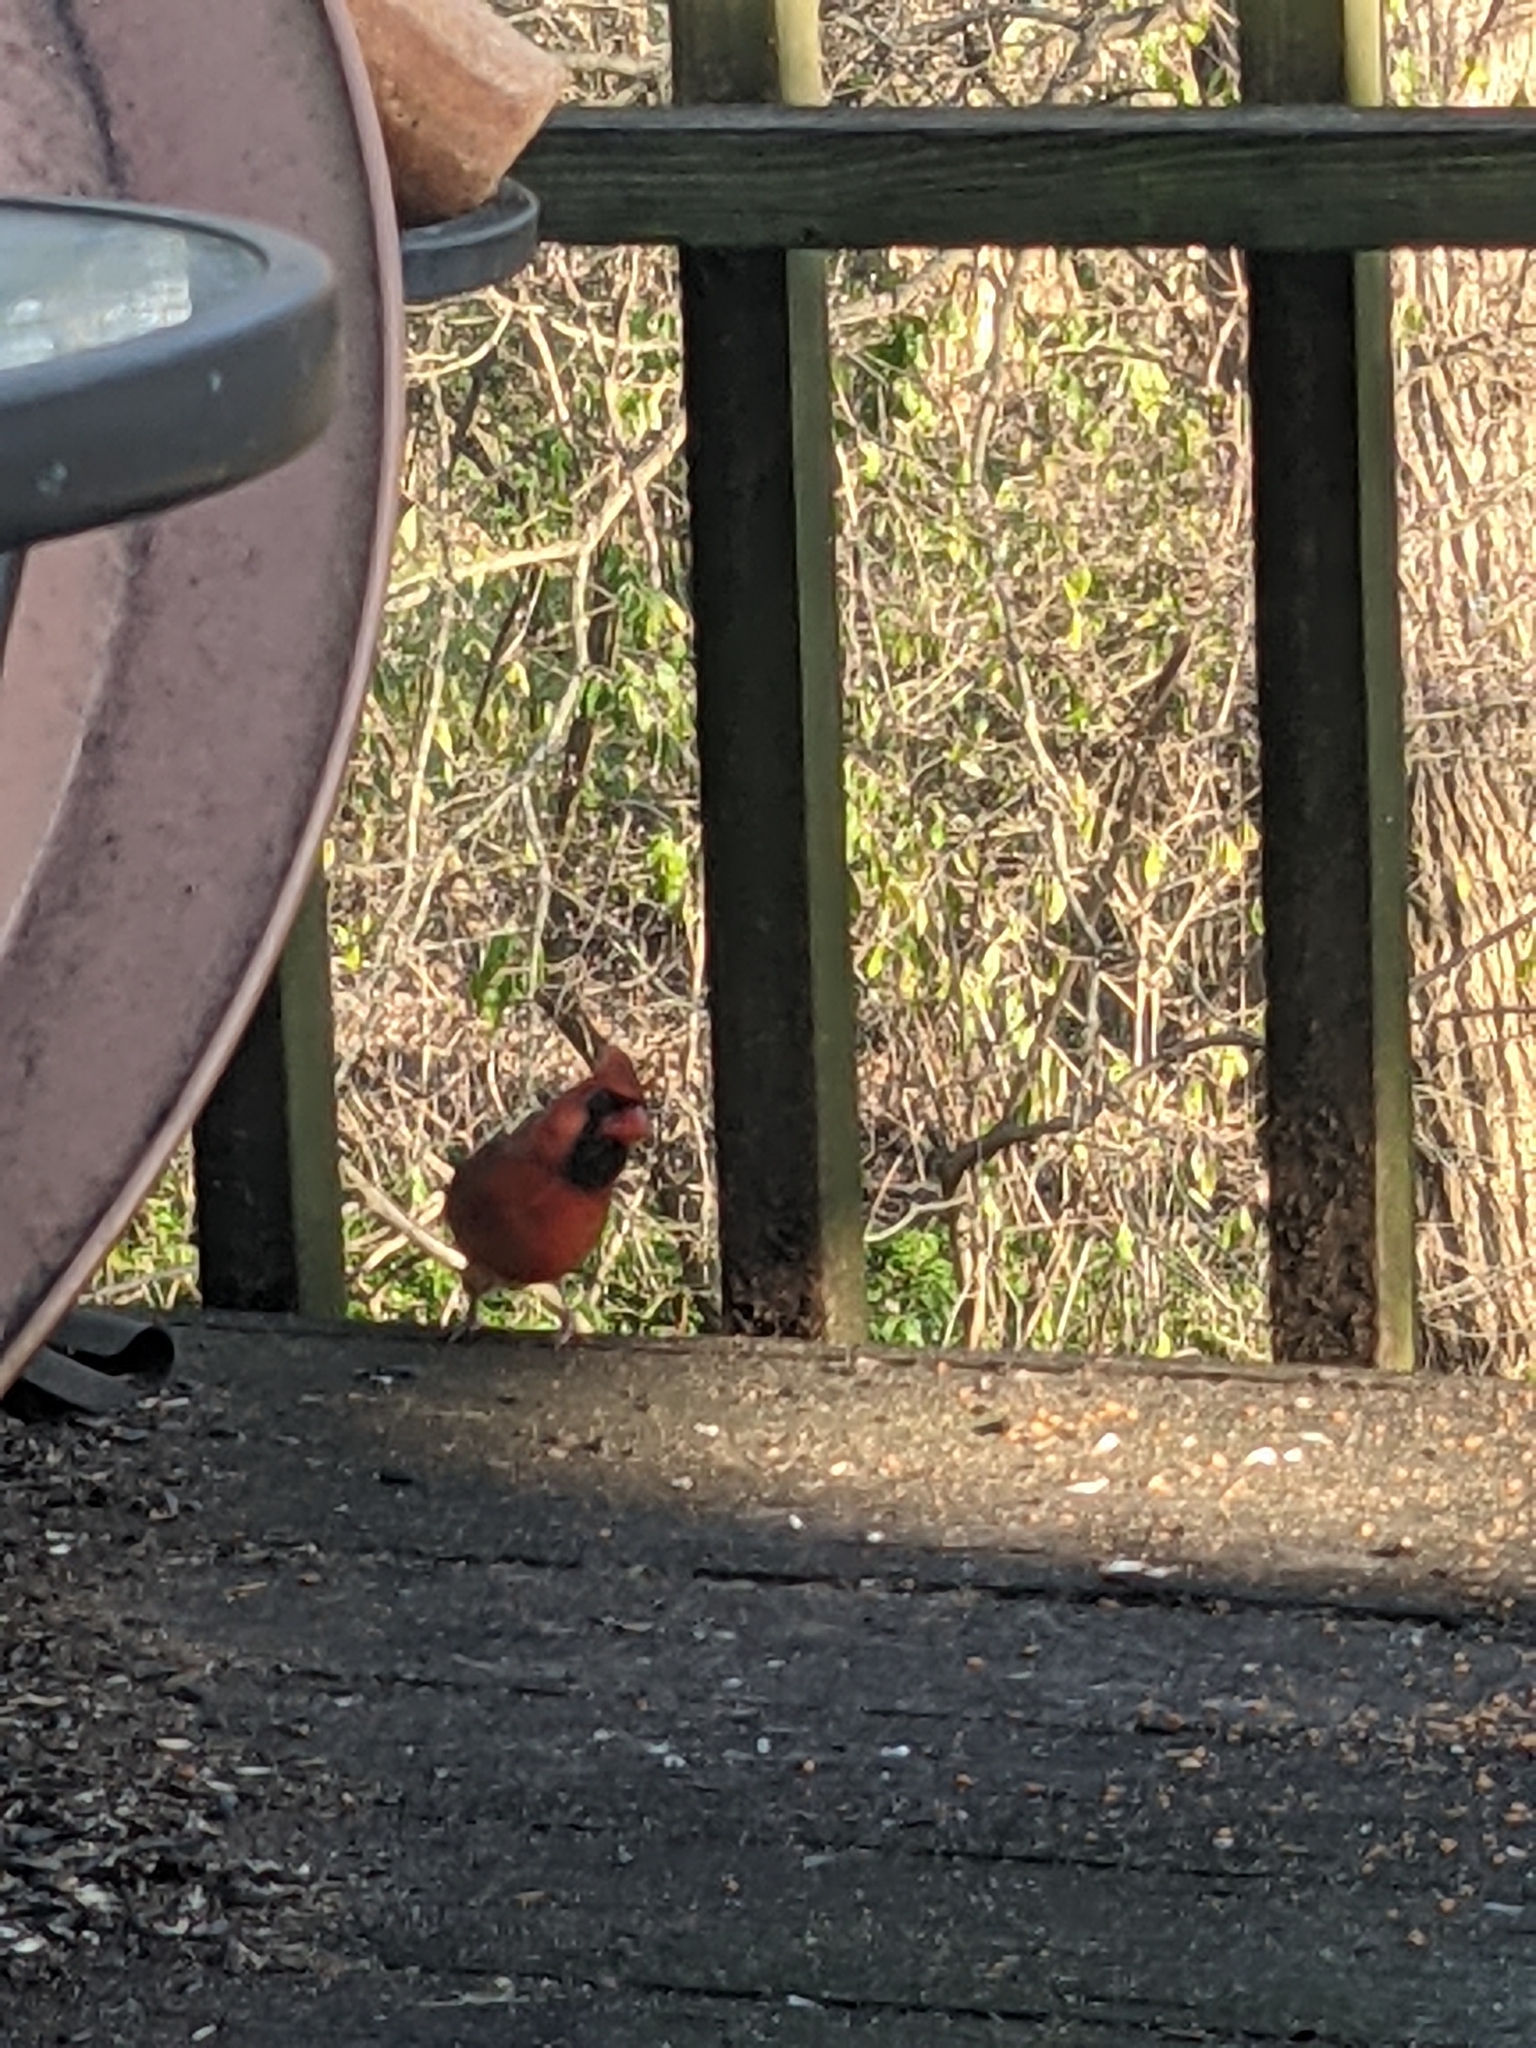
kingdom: Animalia
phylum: Chordata
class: Aves
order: Passeriformes
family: Cardinalidae
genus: Cardinalis
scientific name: Cardinalis cardinalis
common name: Northern cardinal
